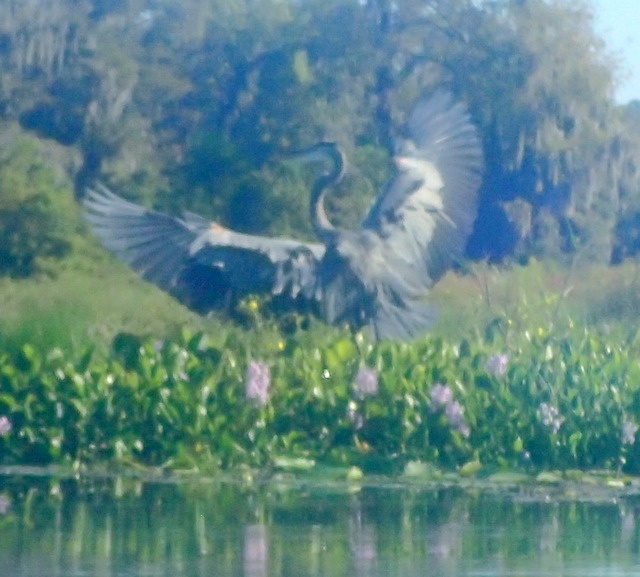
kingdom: Animalia
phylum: Chordata
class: Aves
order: Pelecaniformes
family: Ardeidae
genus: Ardea
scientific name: Ardea herodias
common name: Great blue heron
